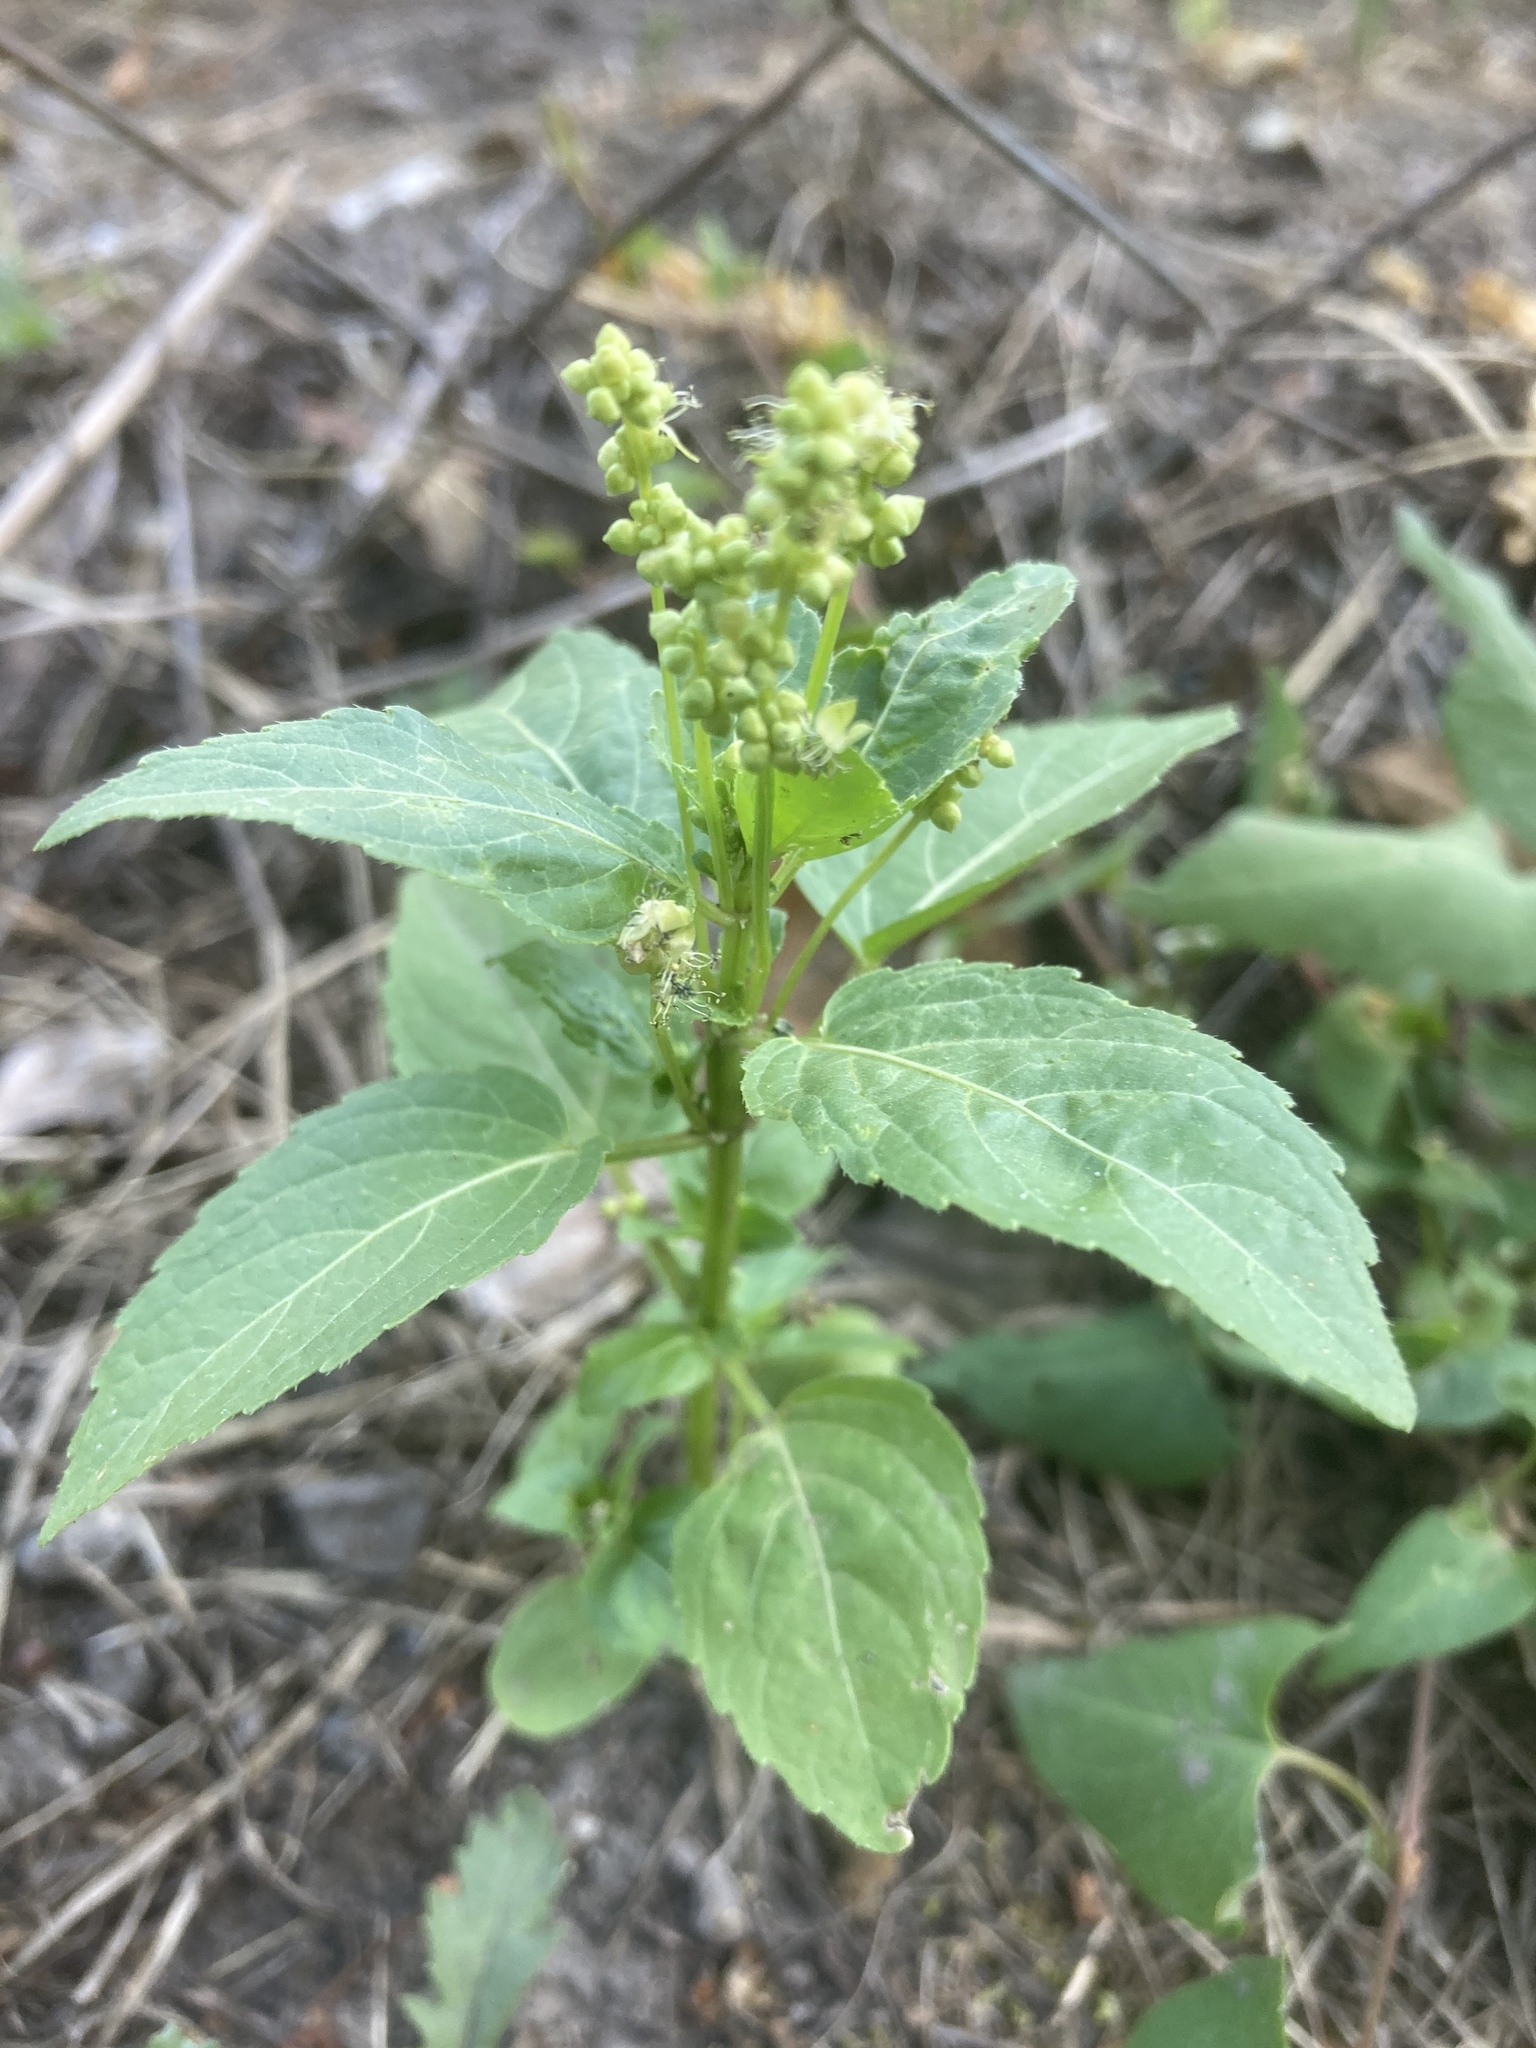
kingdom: Plantae
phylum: Tracheophyta
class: Magnoliopsida
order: Malpighiales
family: Euphorbiaceae
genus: Mercurialis
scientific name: Mercurialis annua
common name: Annual mercury
